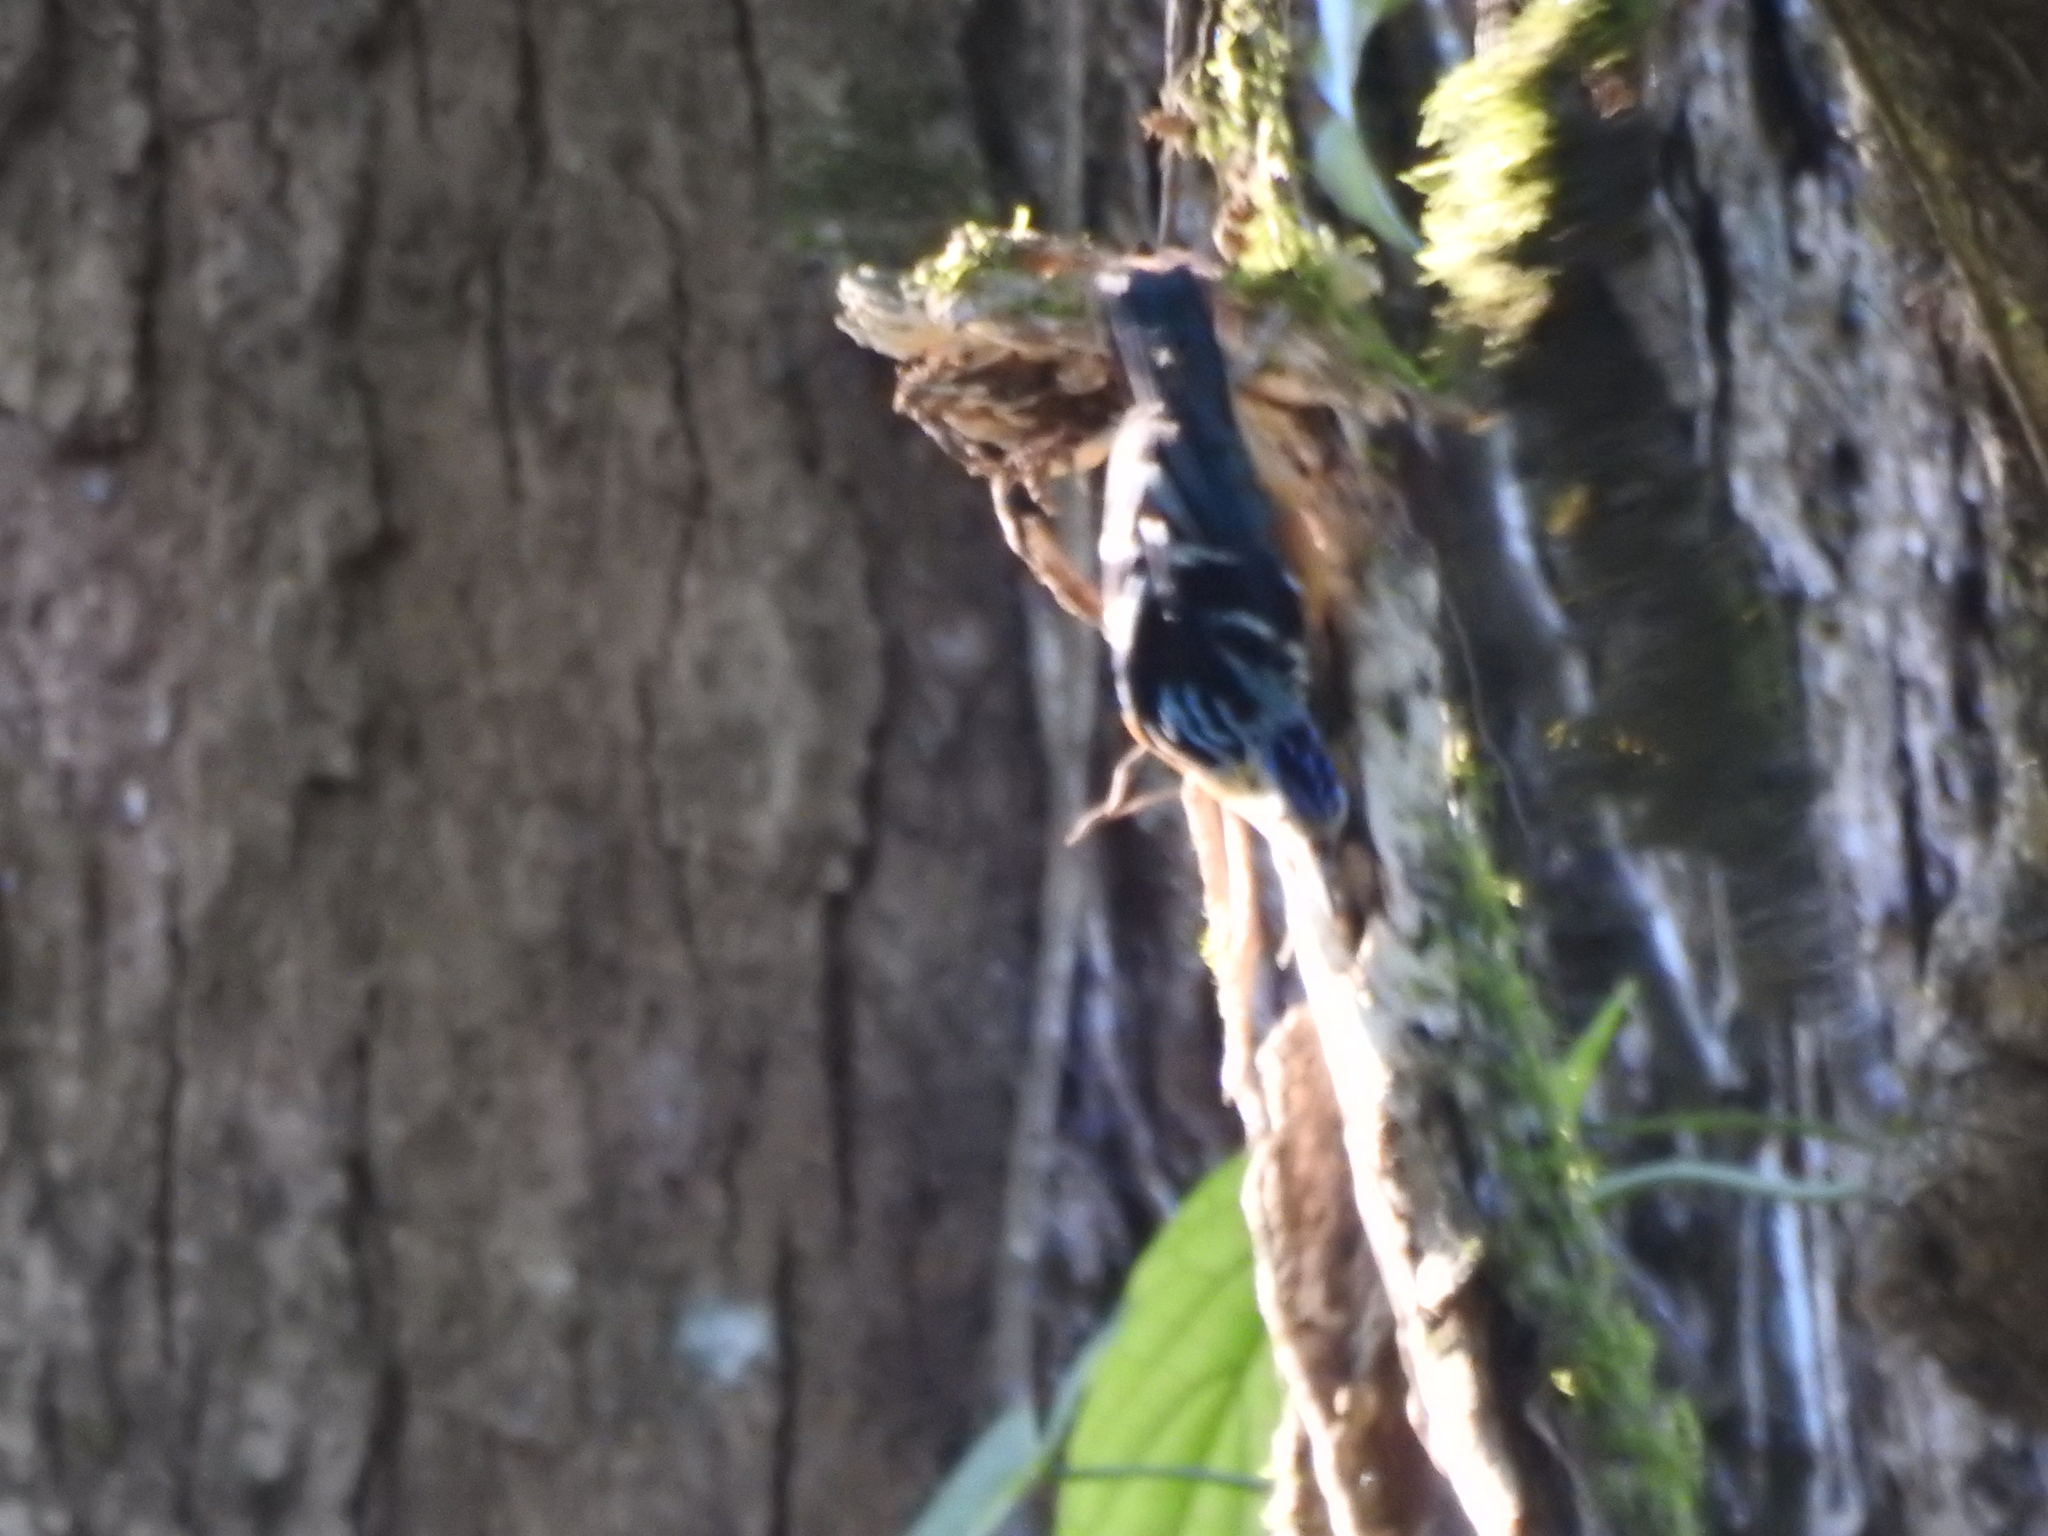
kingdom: Animalia
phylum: Chordata
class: Aves
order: Passeriformes
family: Sittidae
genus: Sitta
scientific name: Sitta formosa
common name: Beautiful nuthatch
